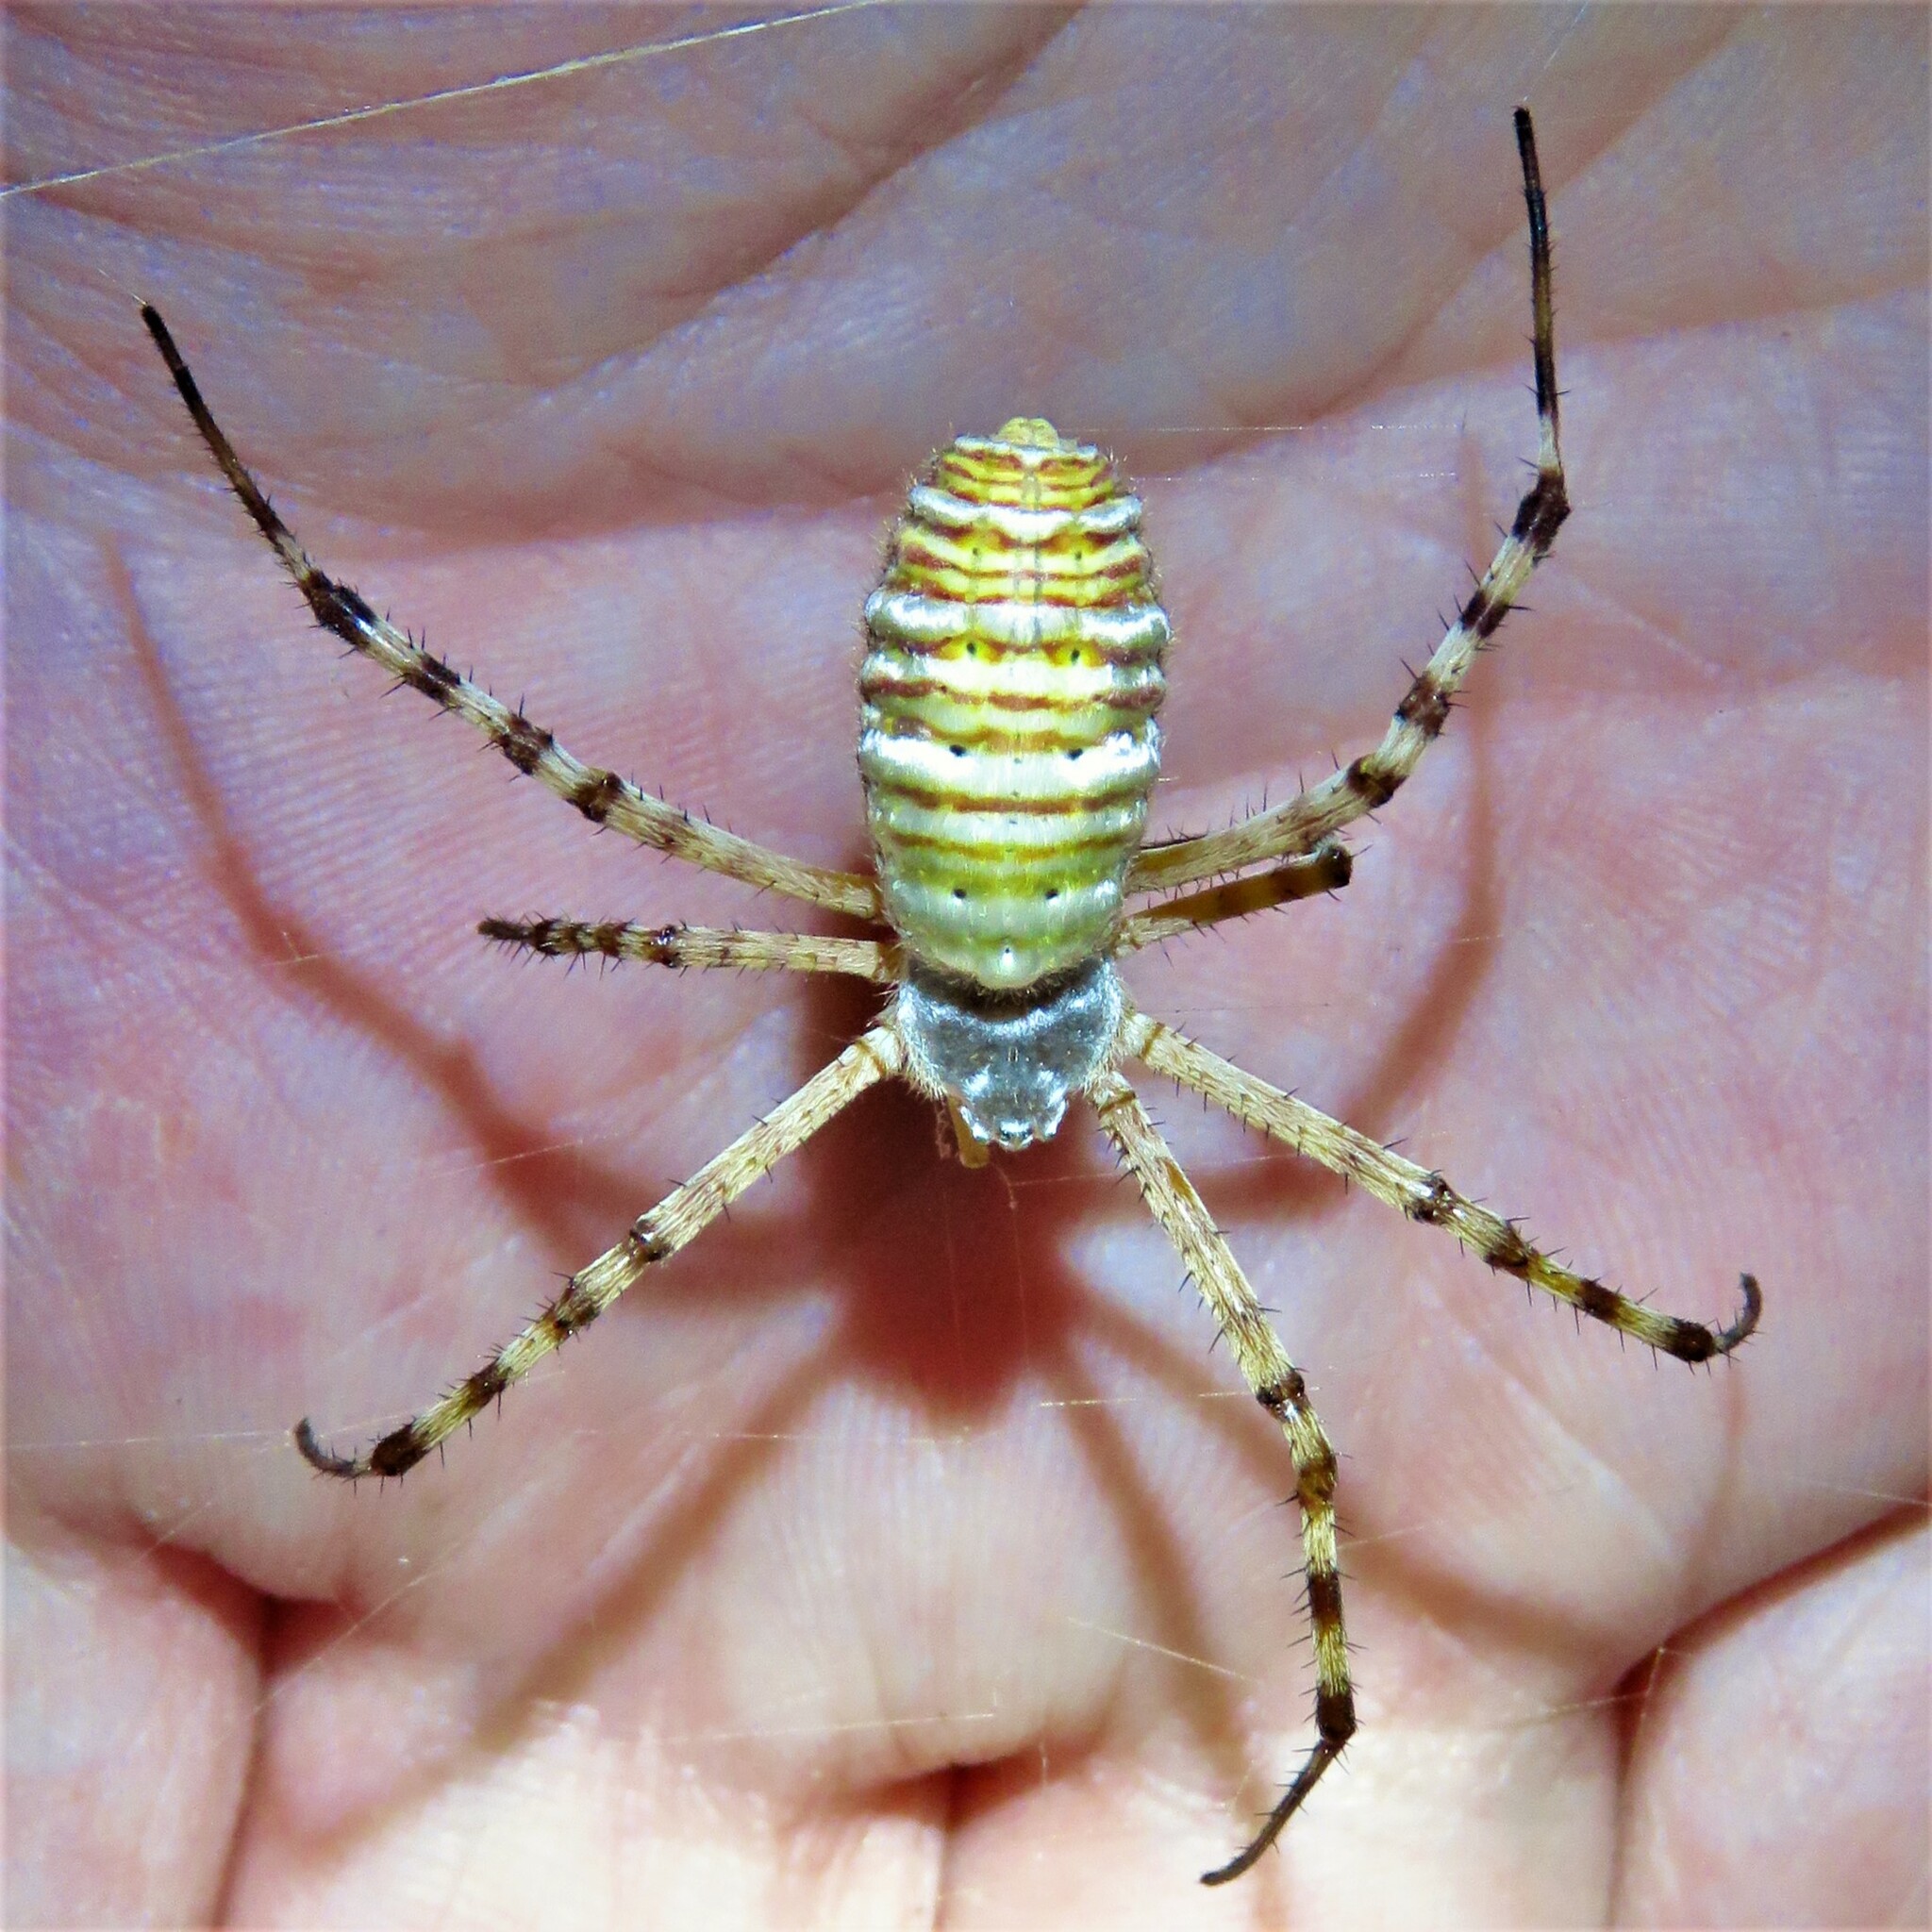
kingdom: Animalia
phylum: Arthropoda
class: Arachnida
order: Araneae
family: Araneidae
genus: Argiope
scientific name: Argiope trifasciata
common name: Banded garden spider
